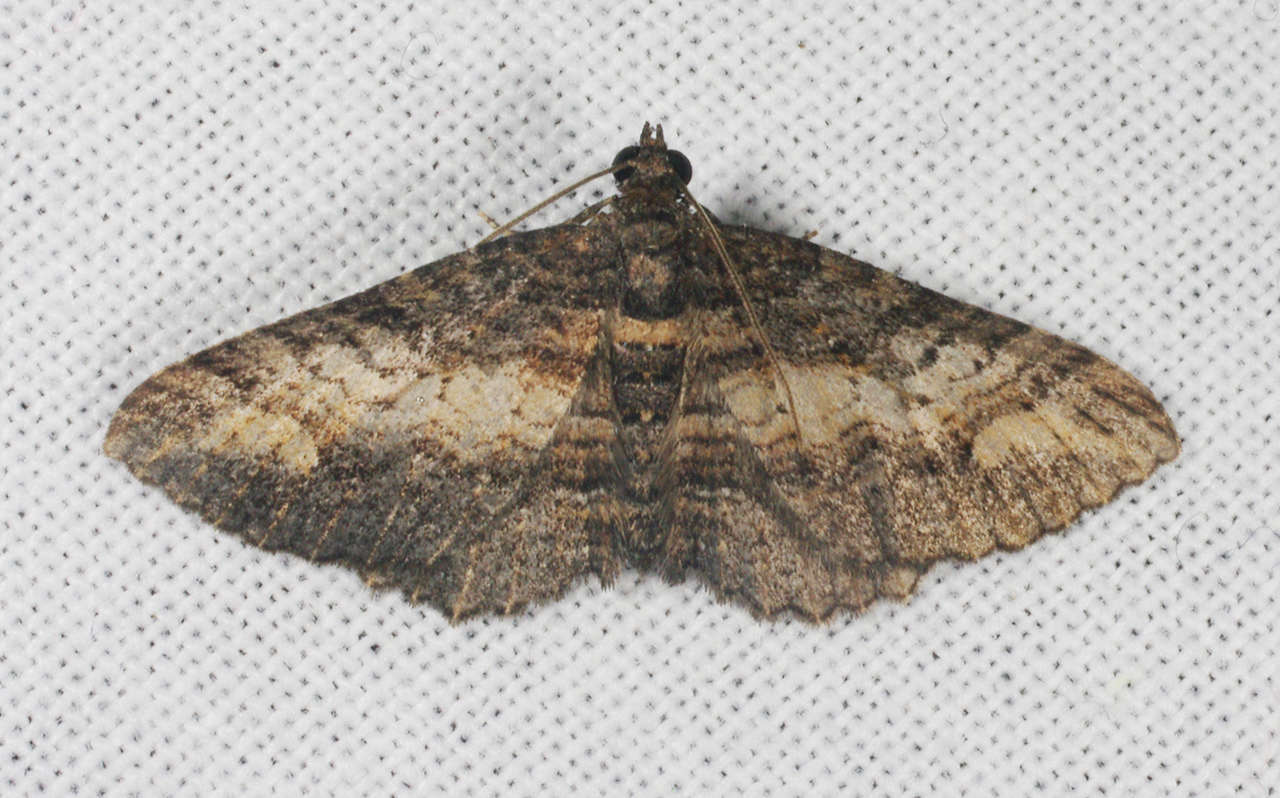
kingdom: Animalia
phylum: Arthropoda
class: Insecta
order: Lepidoptera
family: Geometridae
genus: Eupithecia
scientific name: Eupithecia Eucymatoge scotodes
